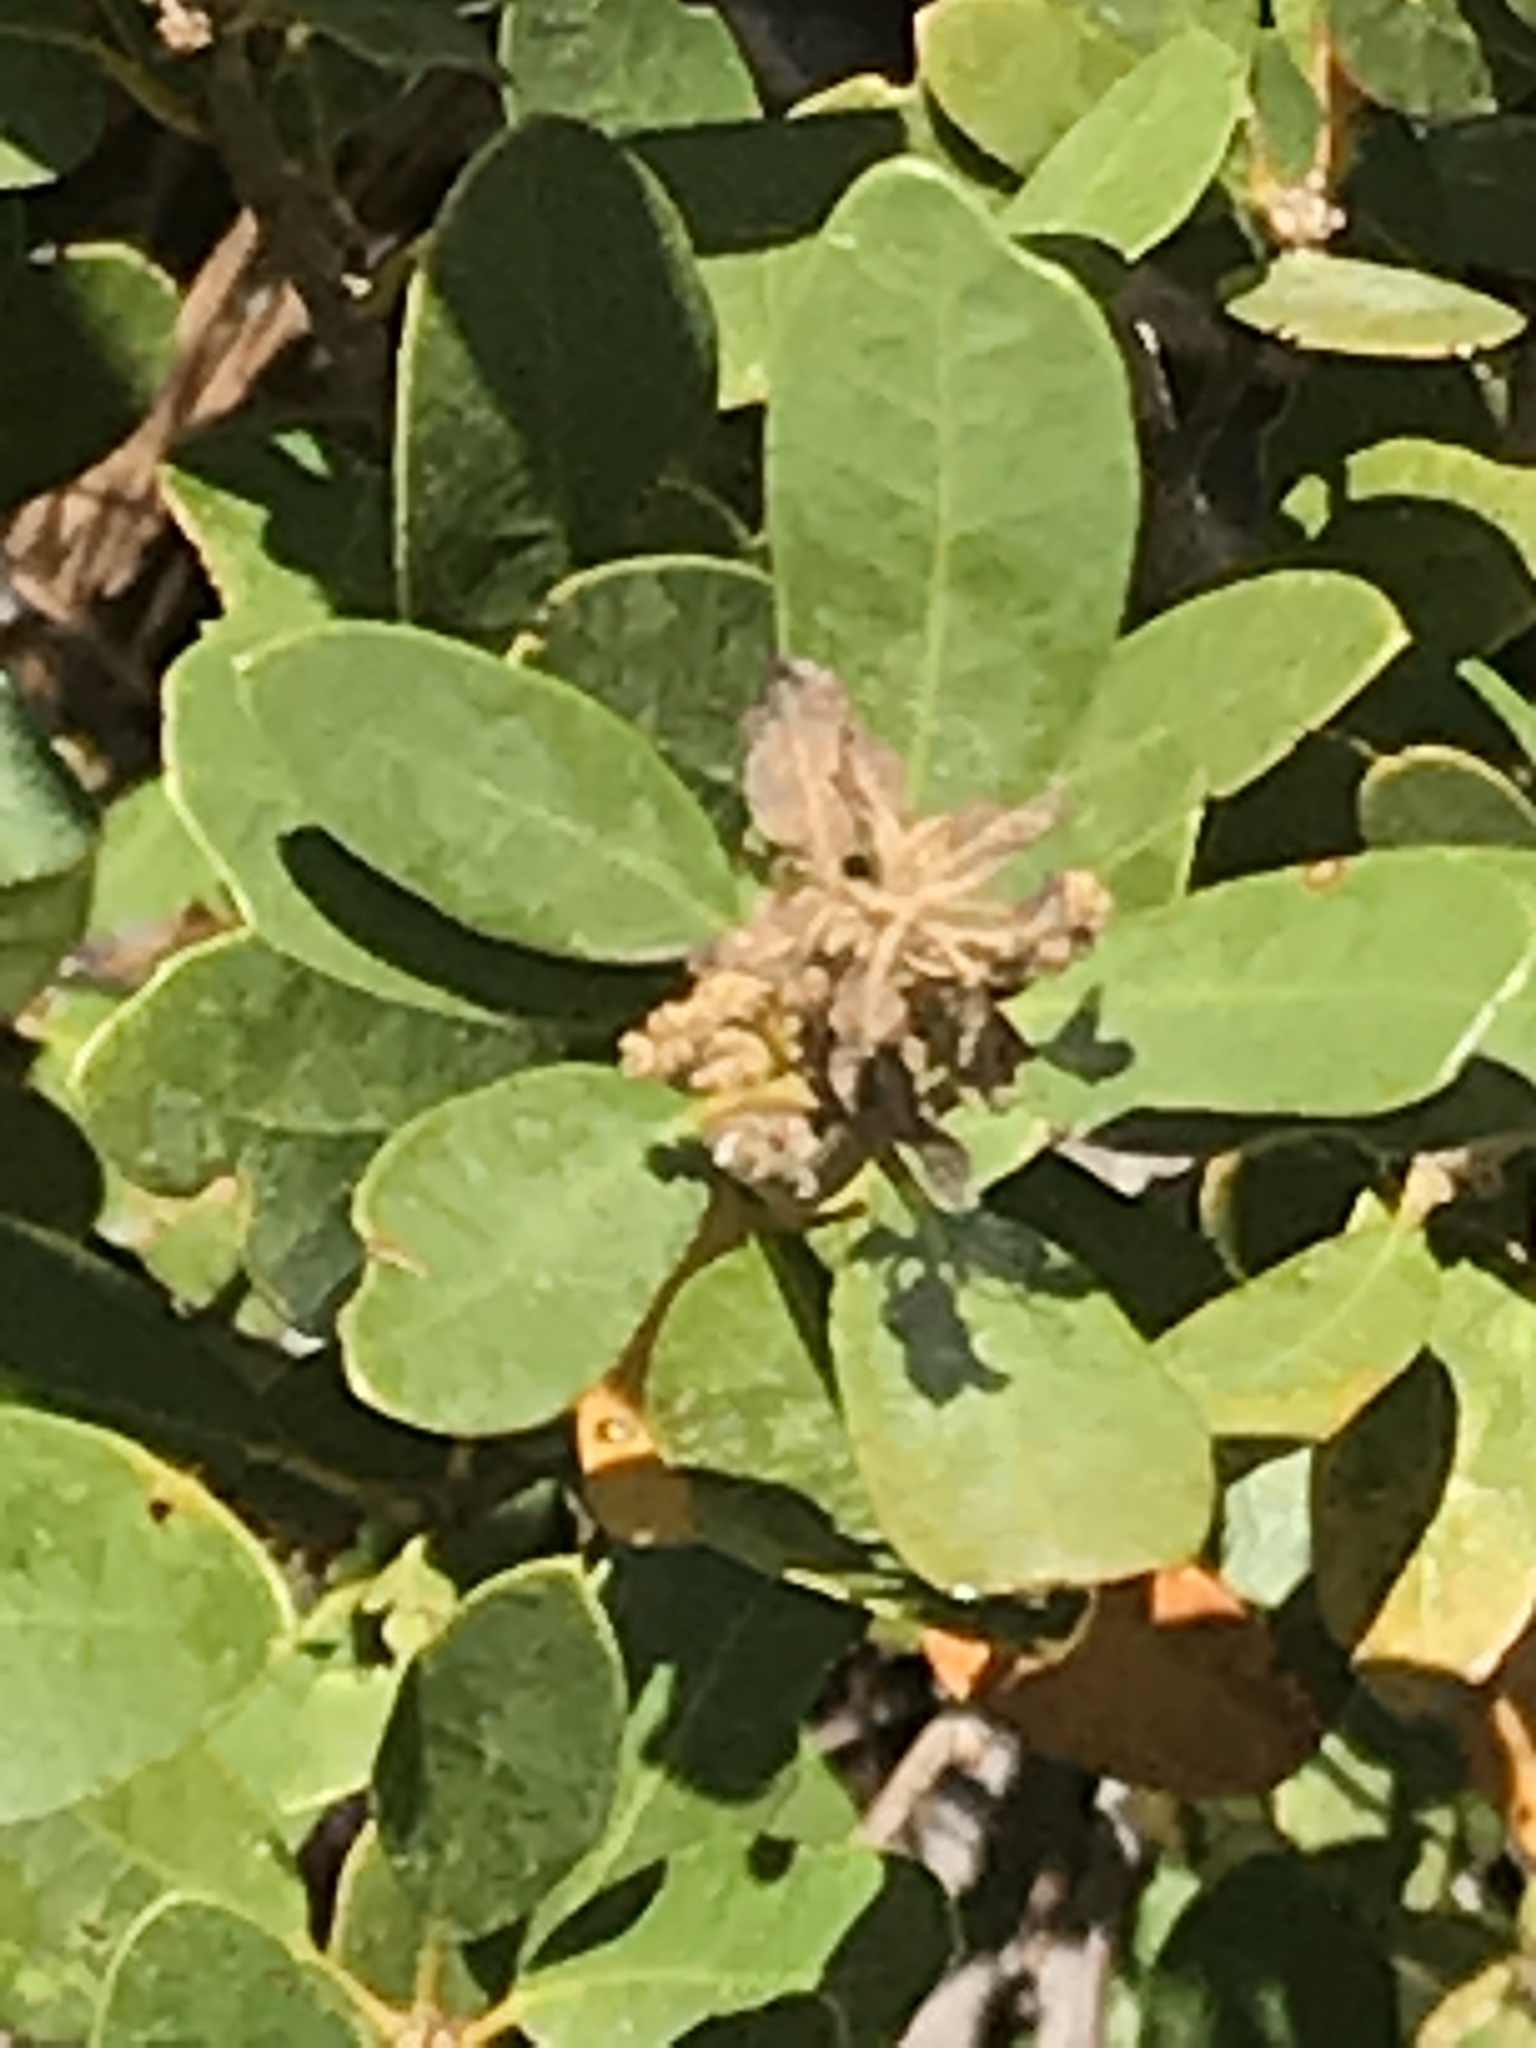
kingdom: Plantae
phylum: Tracheophyta
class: Magnoliopsida
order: Fagales
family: Fagaceae
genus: Chrysolepis
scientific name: Chrysolepis sempervirens
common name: Bush chinquapin
